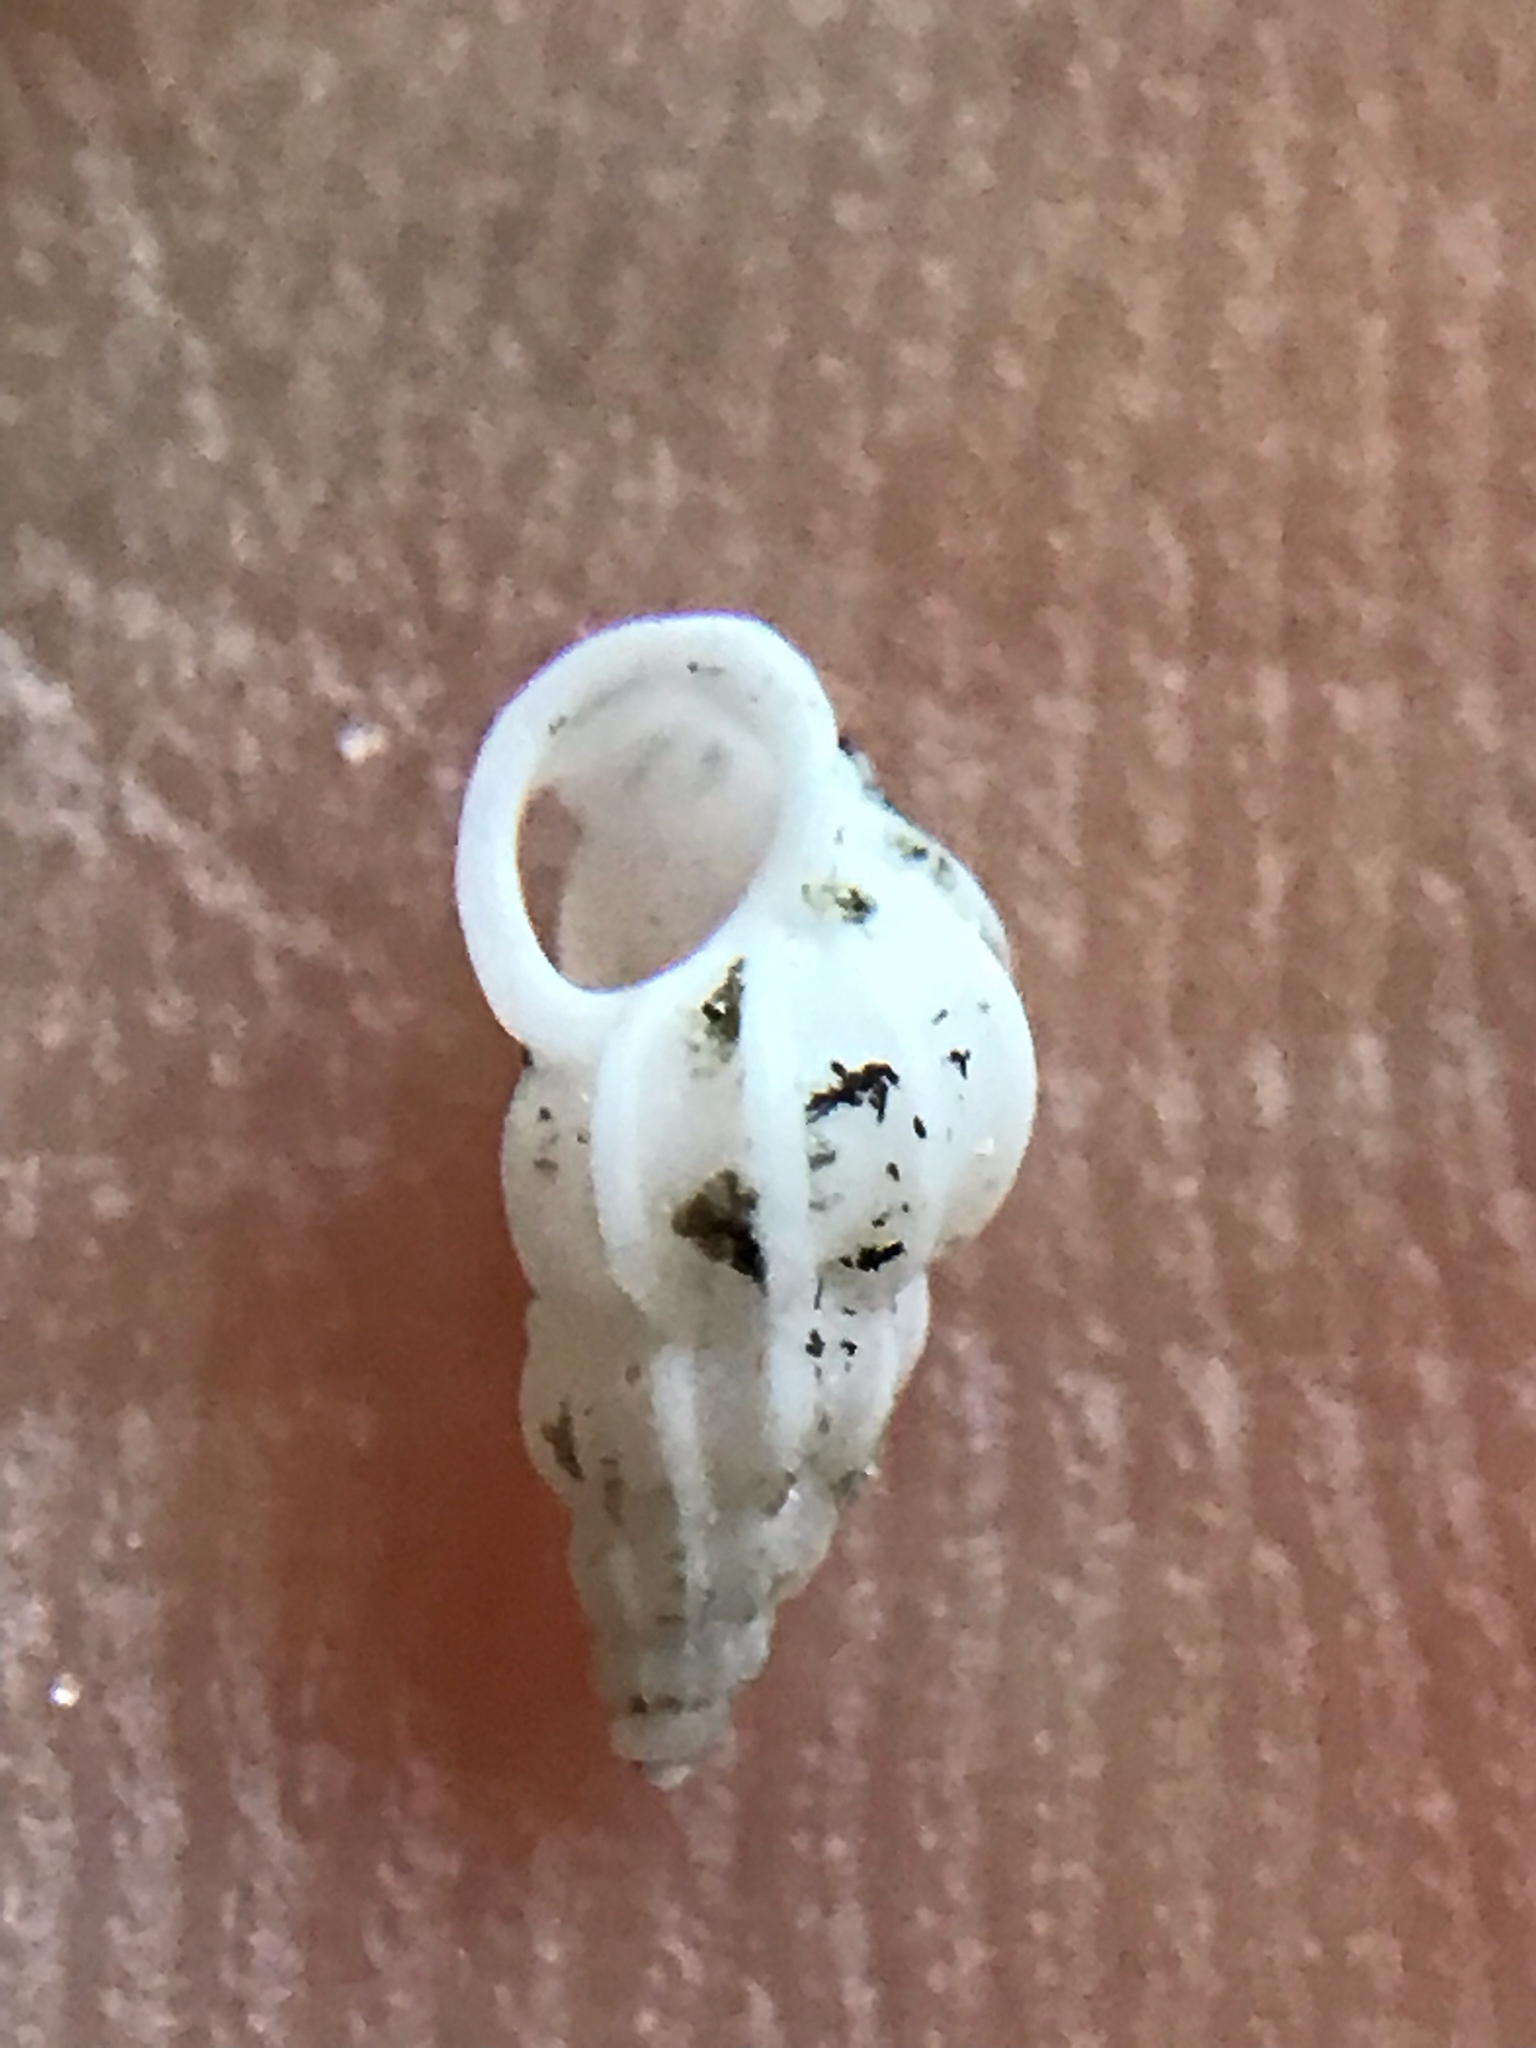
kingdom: Animalia
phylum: Mollusca
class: Gastropoda
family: Epitoniidae
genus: Epitonium
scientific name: Epitonium albidum
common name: Bladed wentletrap
